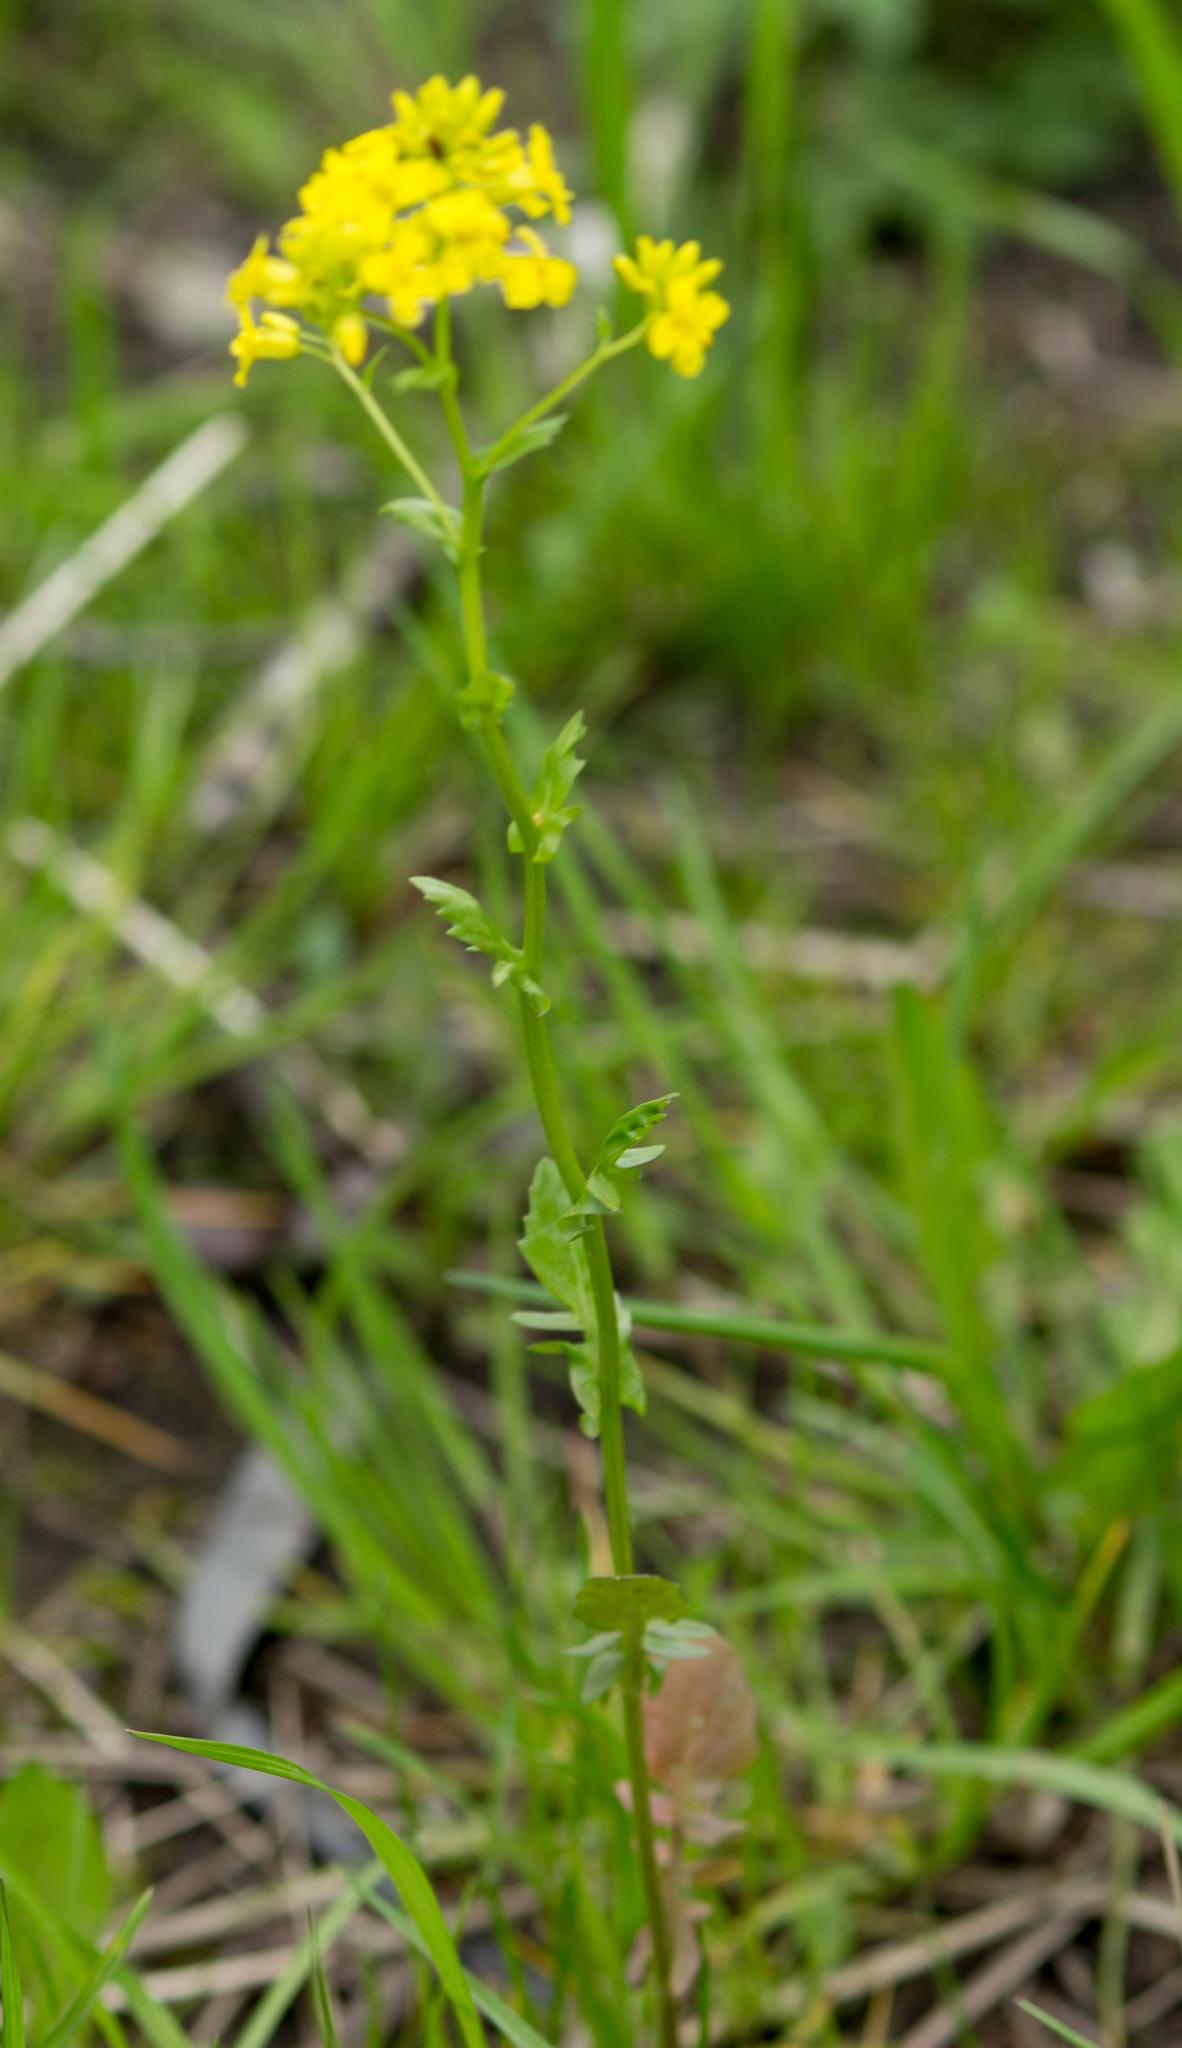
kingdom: Plantae
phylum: Tracheophyta
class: Magnoliopsida
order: Brassicales
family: Brassicaceae
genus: Barbarea
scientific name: Barbarea vulgaris
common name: Cressy-greens
